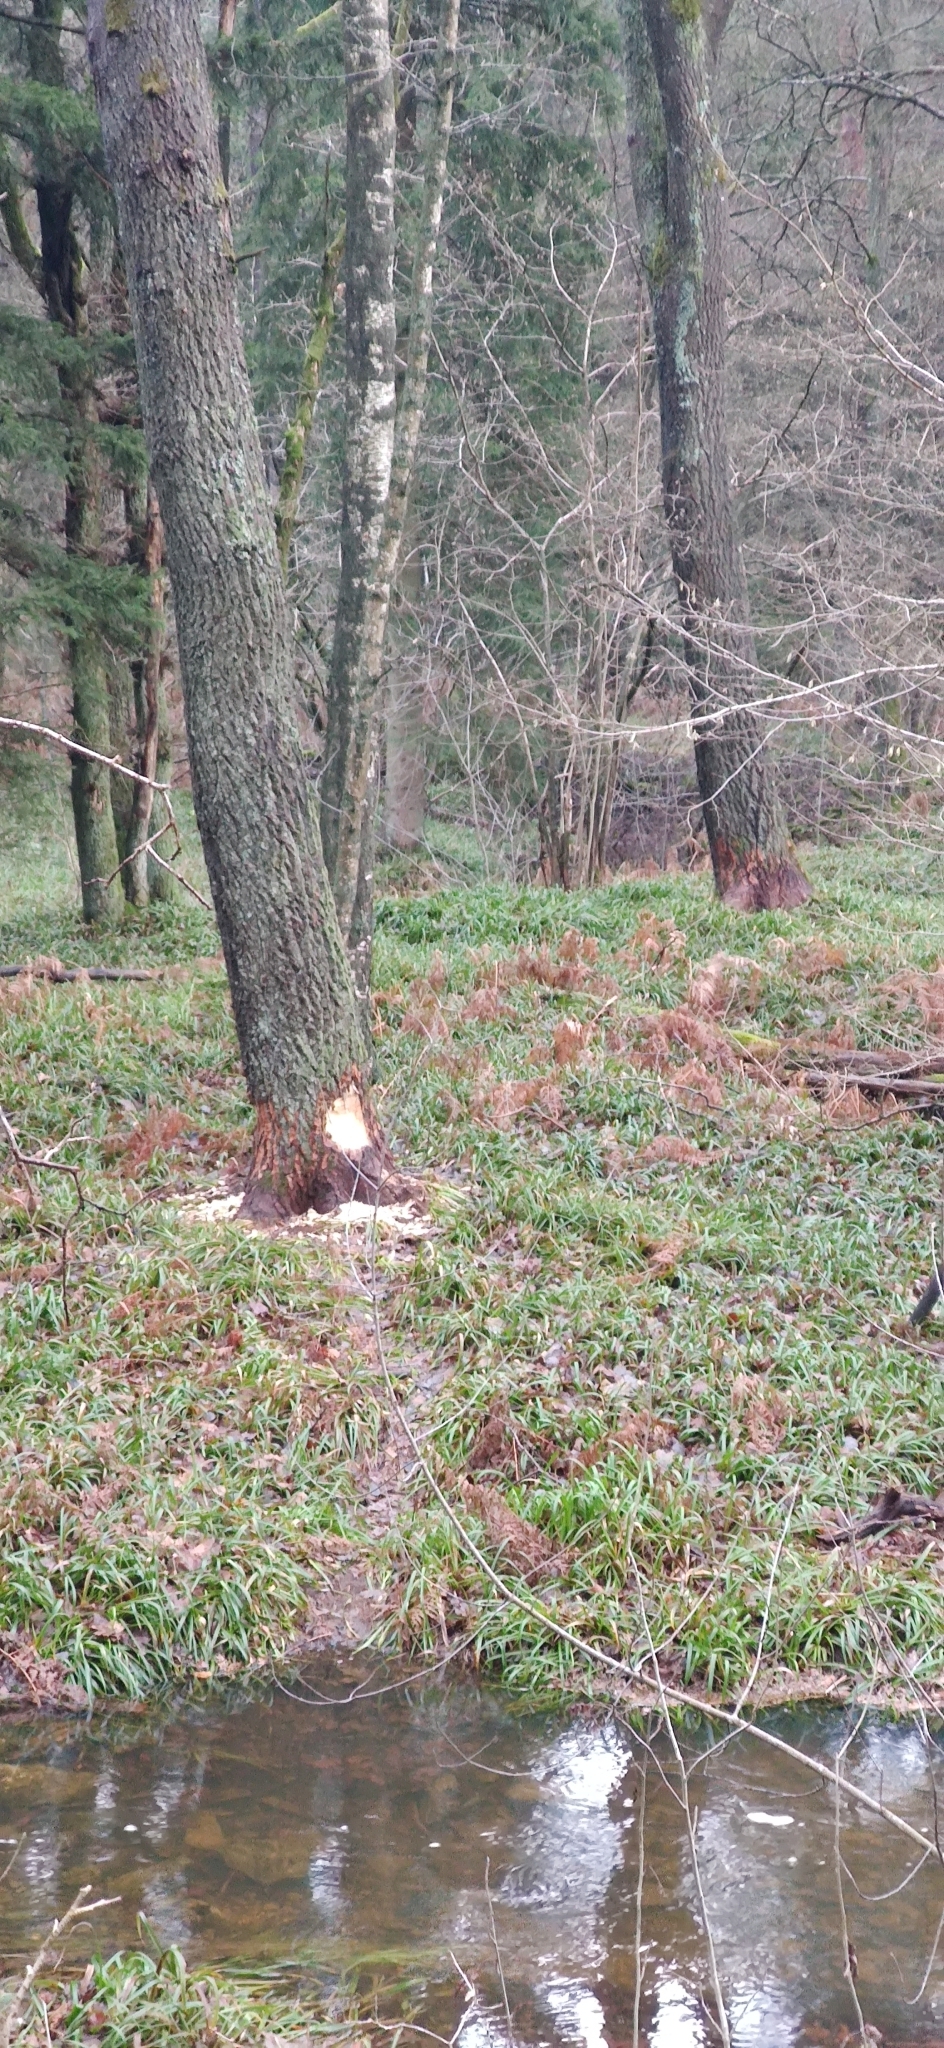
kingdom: Animalia
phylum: Chordata
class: Mammalia
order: Rodentia
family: Castoridae
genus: Castor
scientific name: Castor fiber
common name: Eurasian beaver
